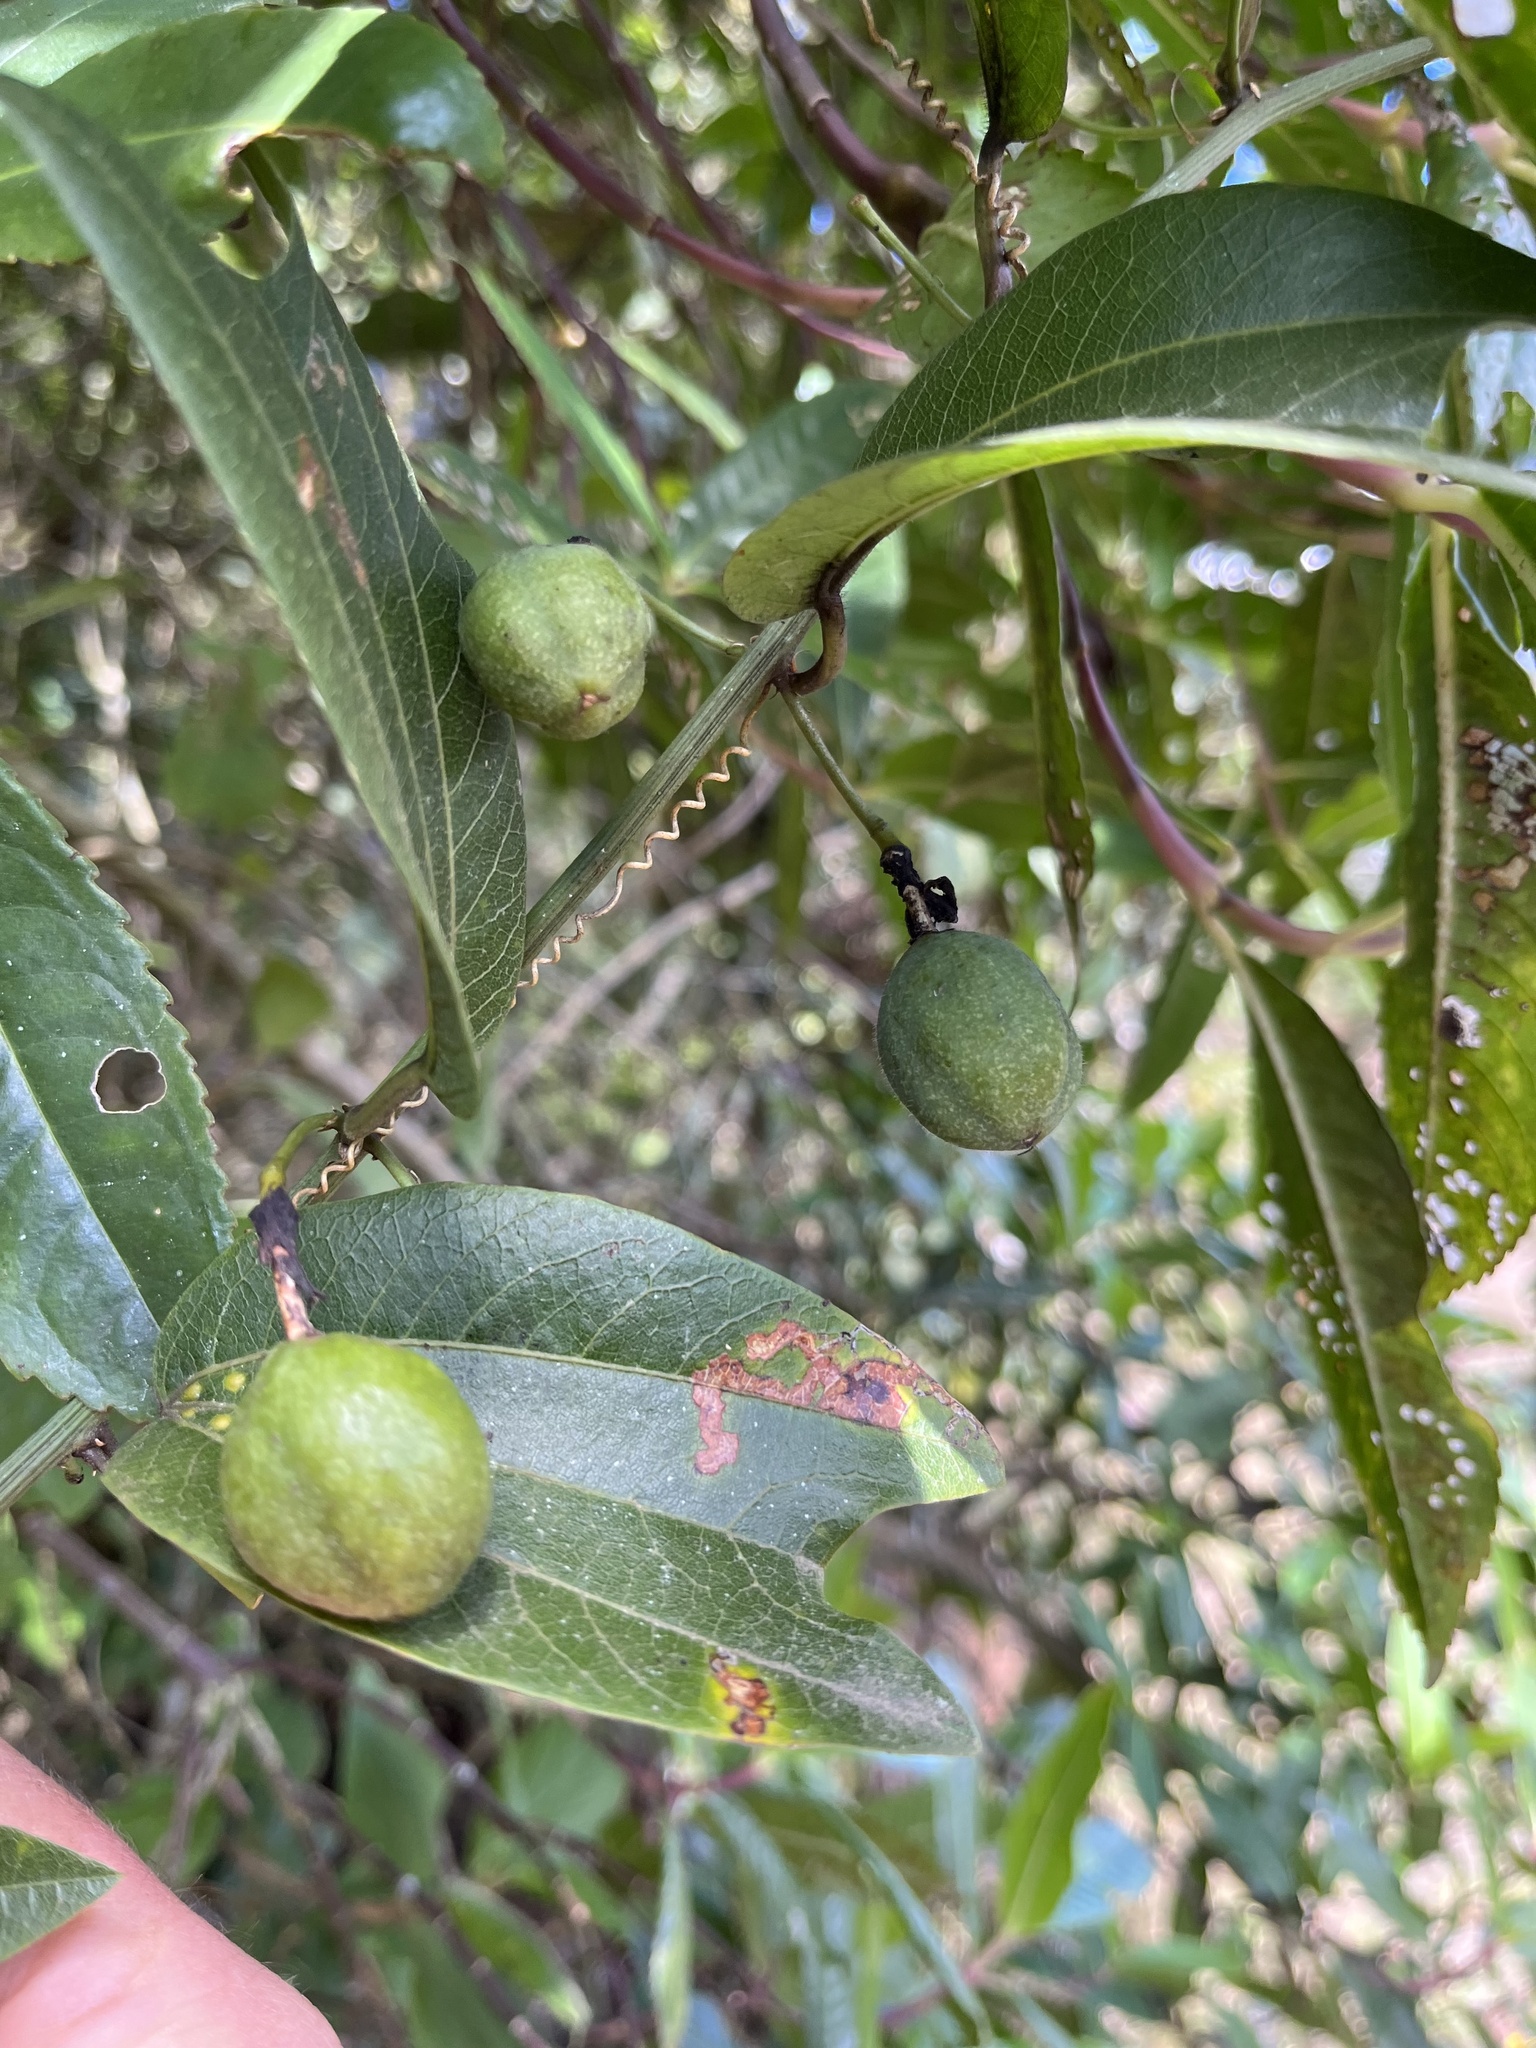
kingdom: Plantae
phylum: Tracheophyta
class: Magnoliopsida
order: Malpighiales
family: Passifloraceae
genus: Passiflora
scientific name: Passiflora chelidonea
